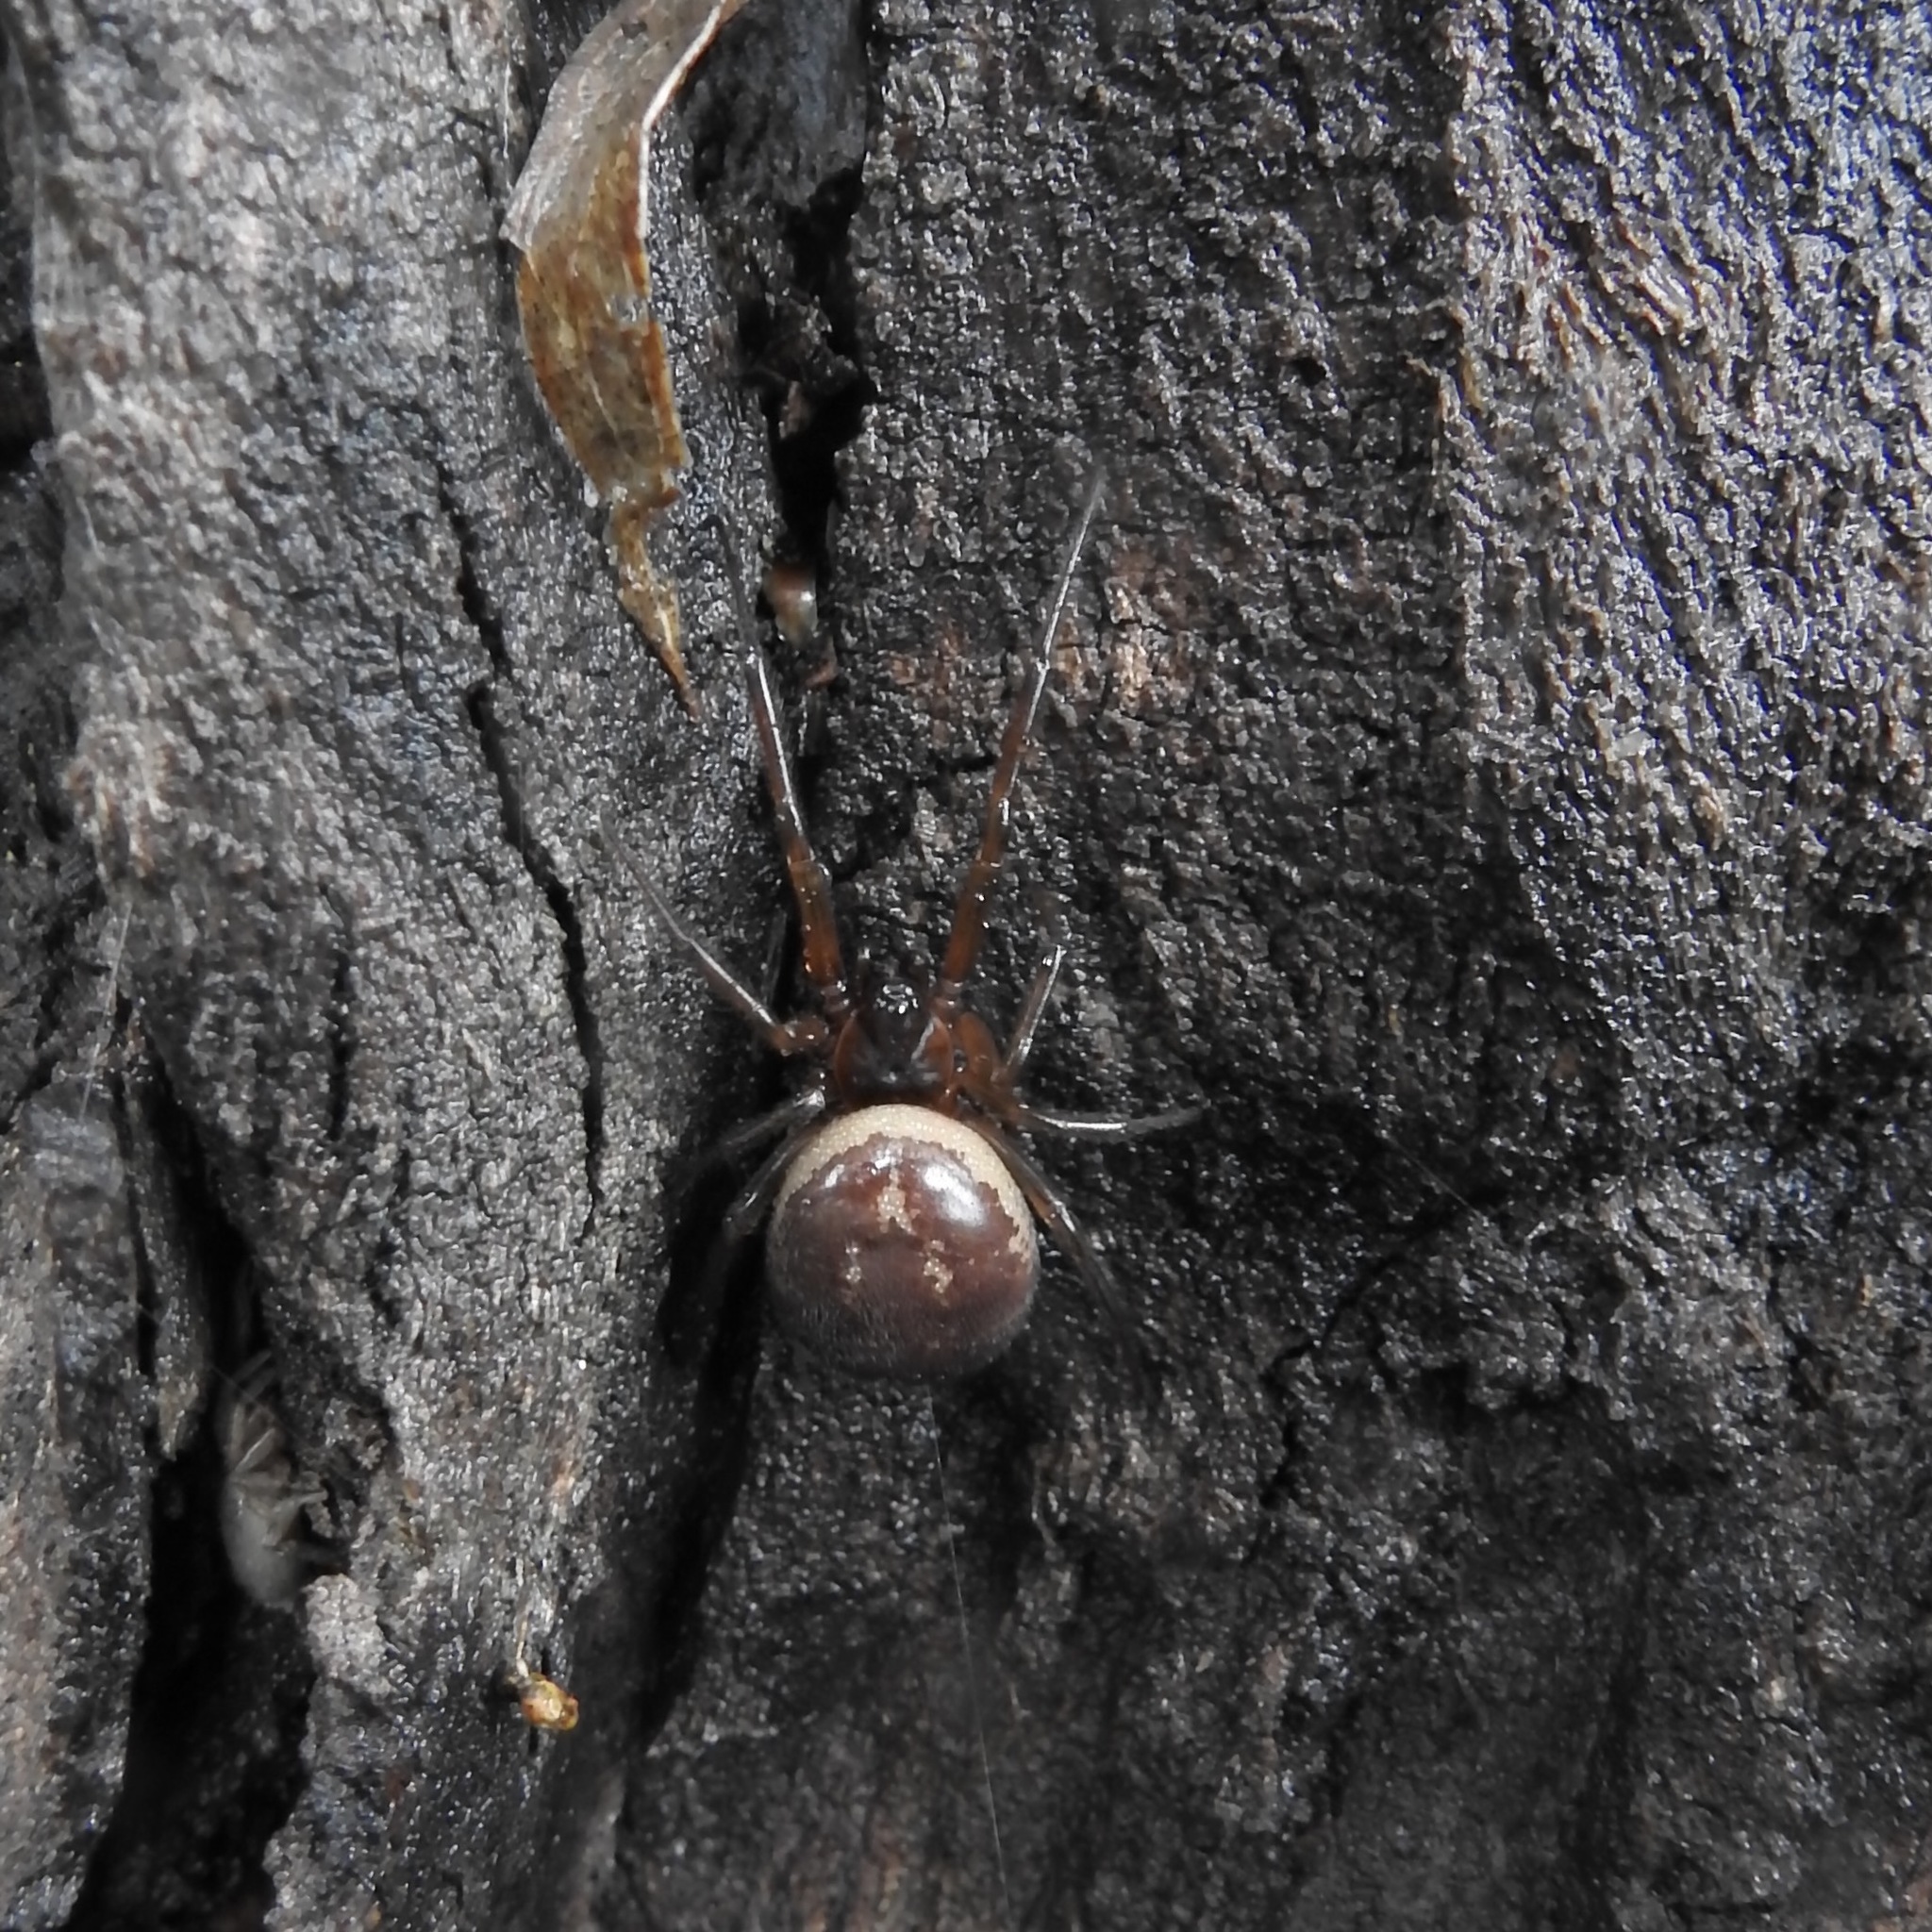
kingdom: Animalia
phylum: Arthropoda
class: Arachnida
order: Araneae
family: Theridiidae
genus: Steatoda
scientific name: Steatoda nobilis
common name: Cobweb weaver
